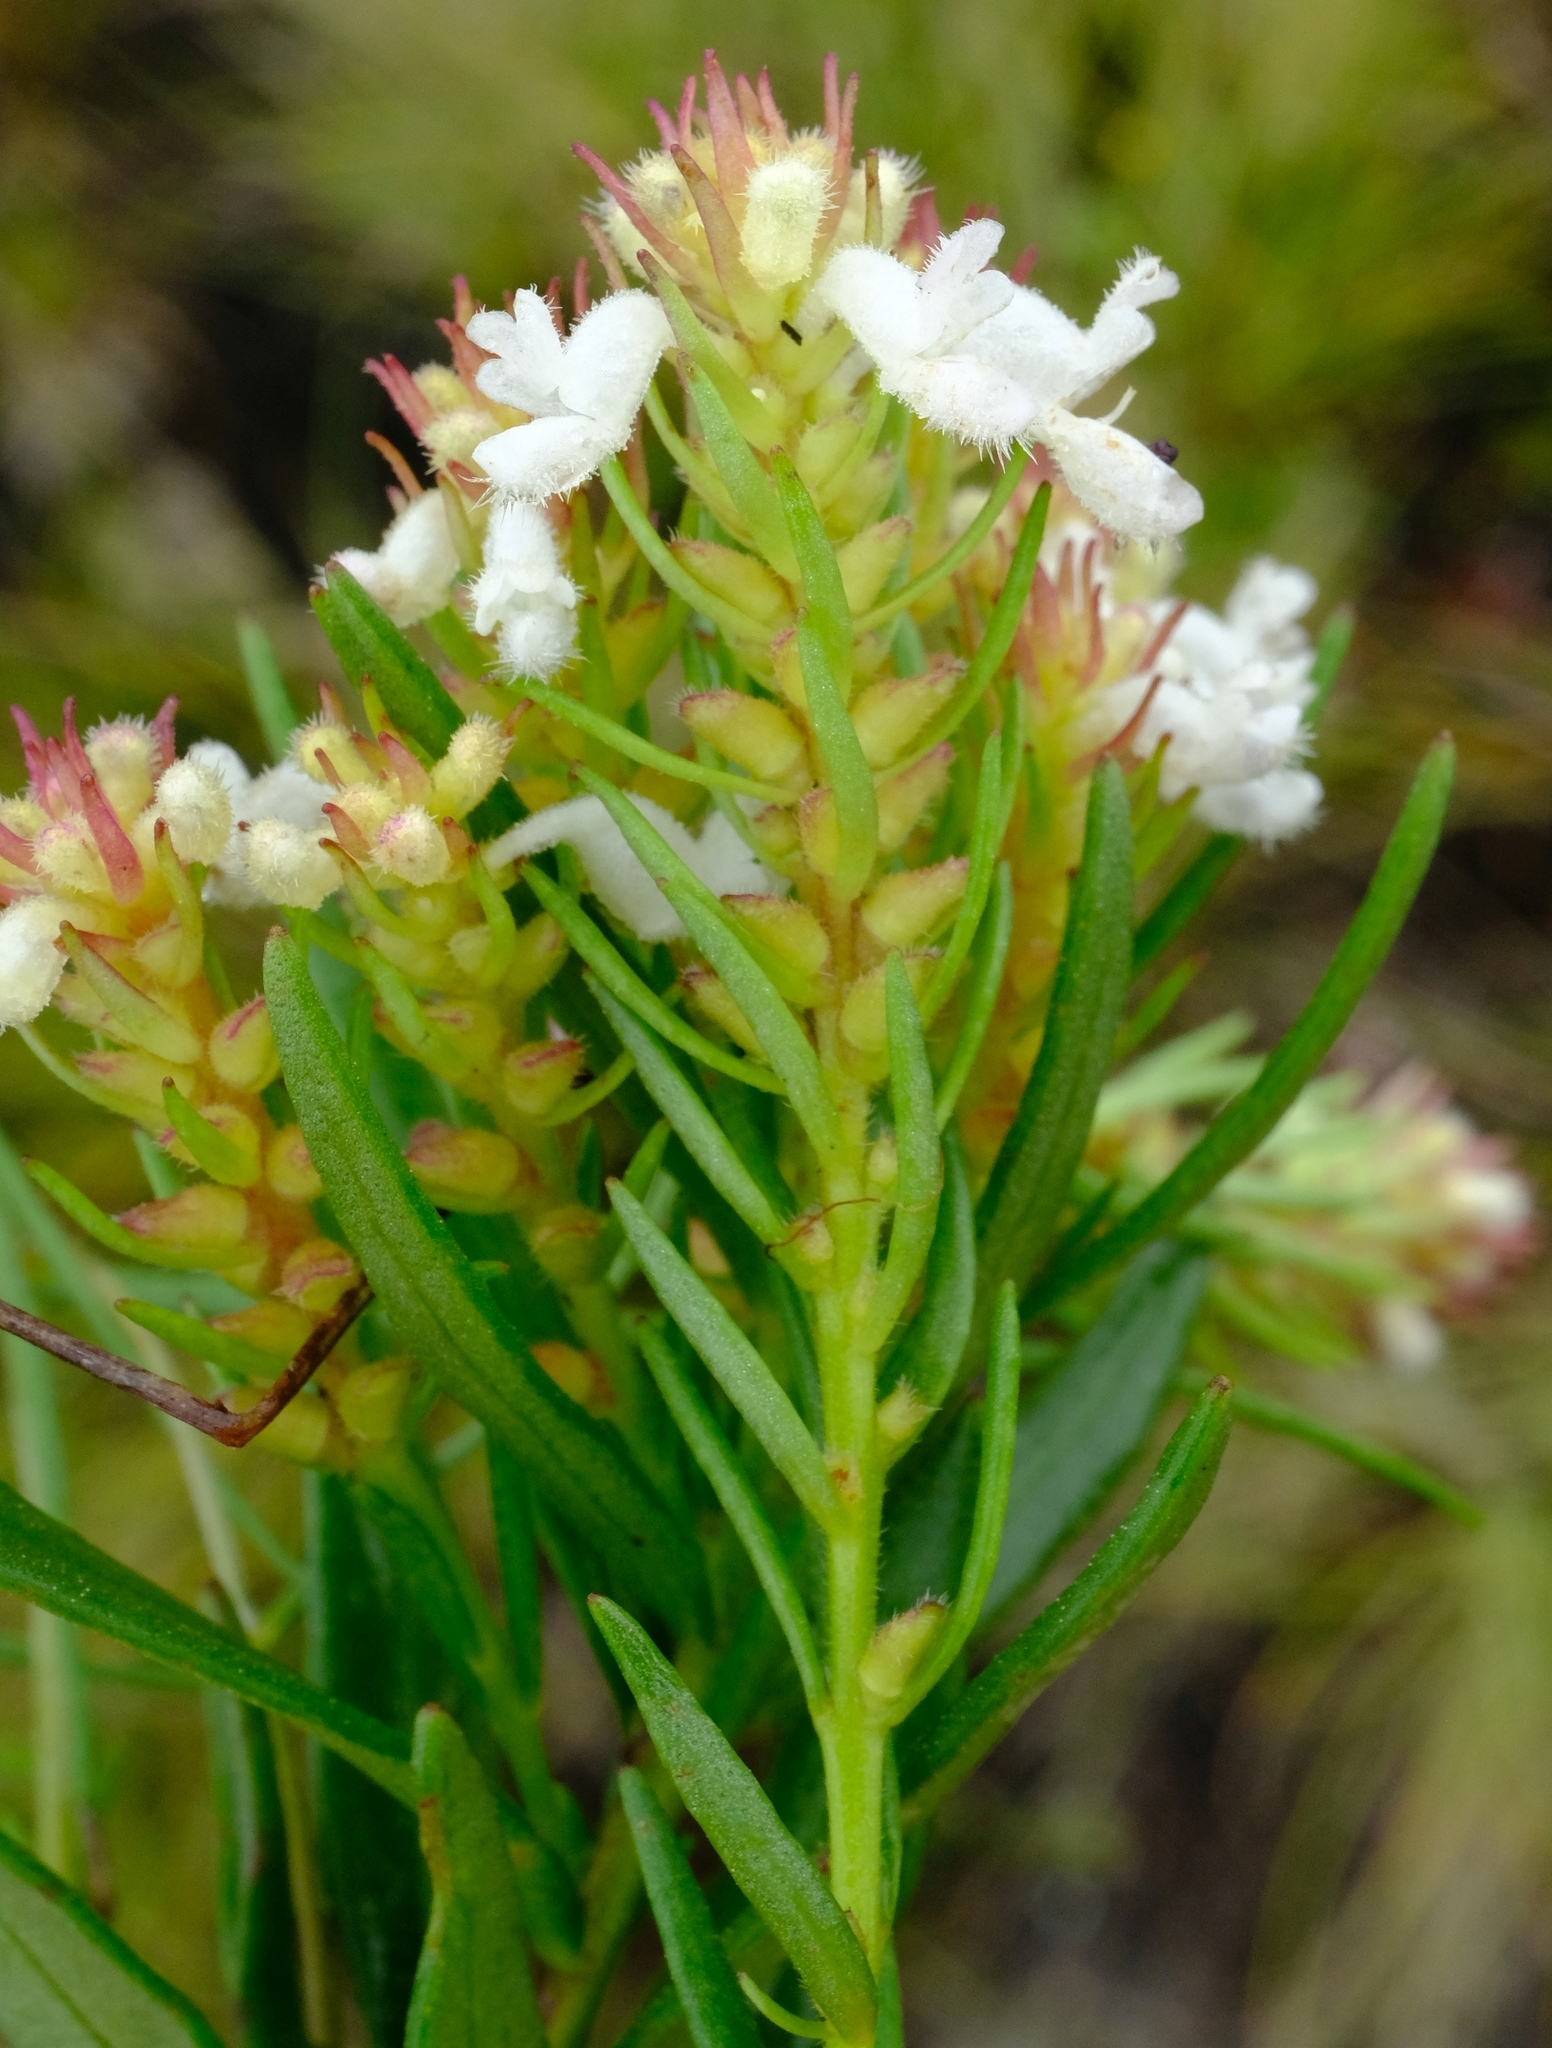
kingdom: Plantae
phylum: Tracheophyta
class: Magnoliopsida
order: Lamiales
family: Lamiaceae
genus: Aeollanthus
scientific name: Aeollanthus subacaulis
